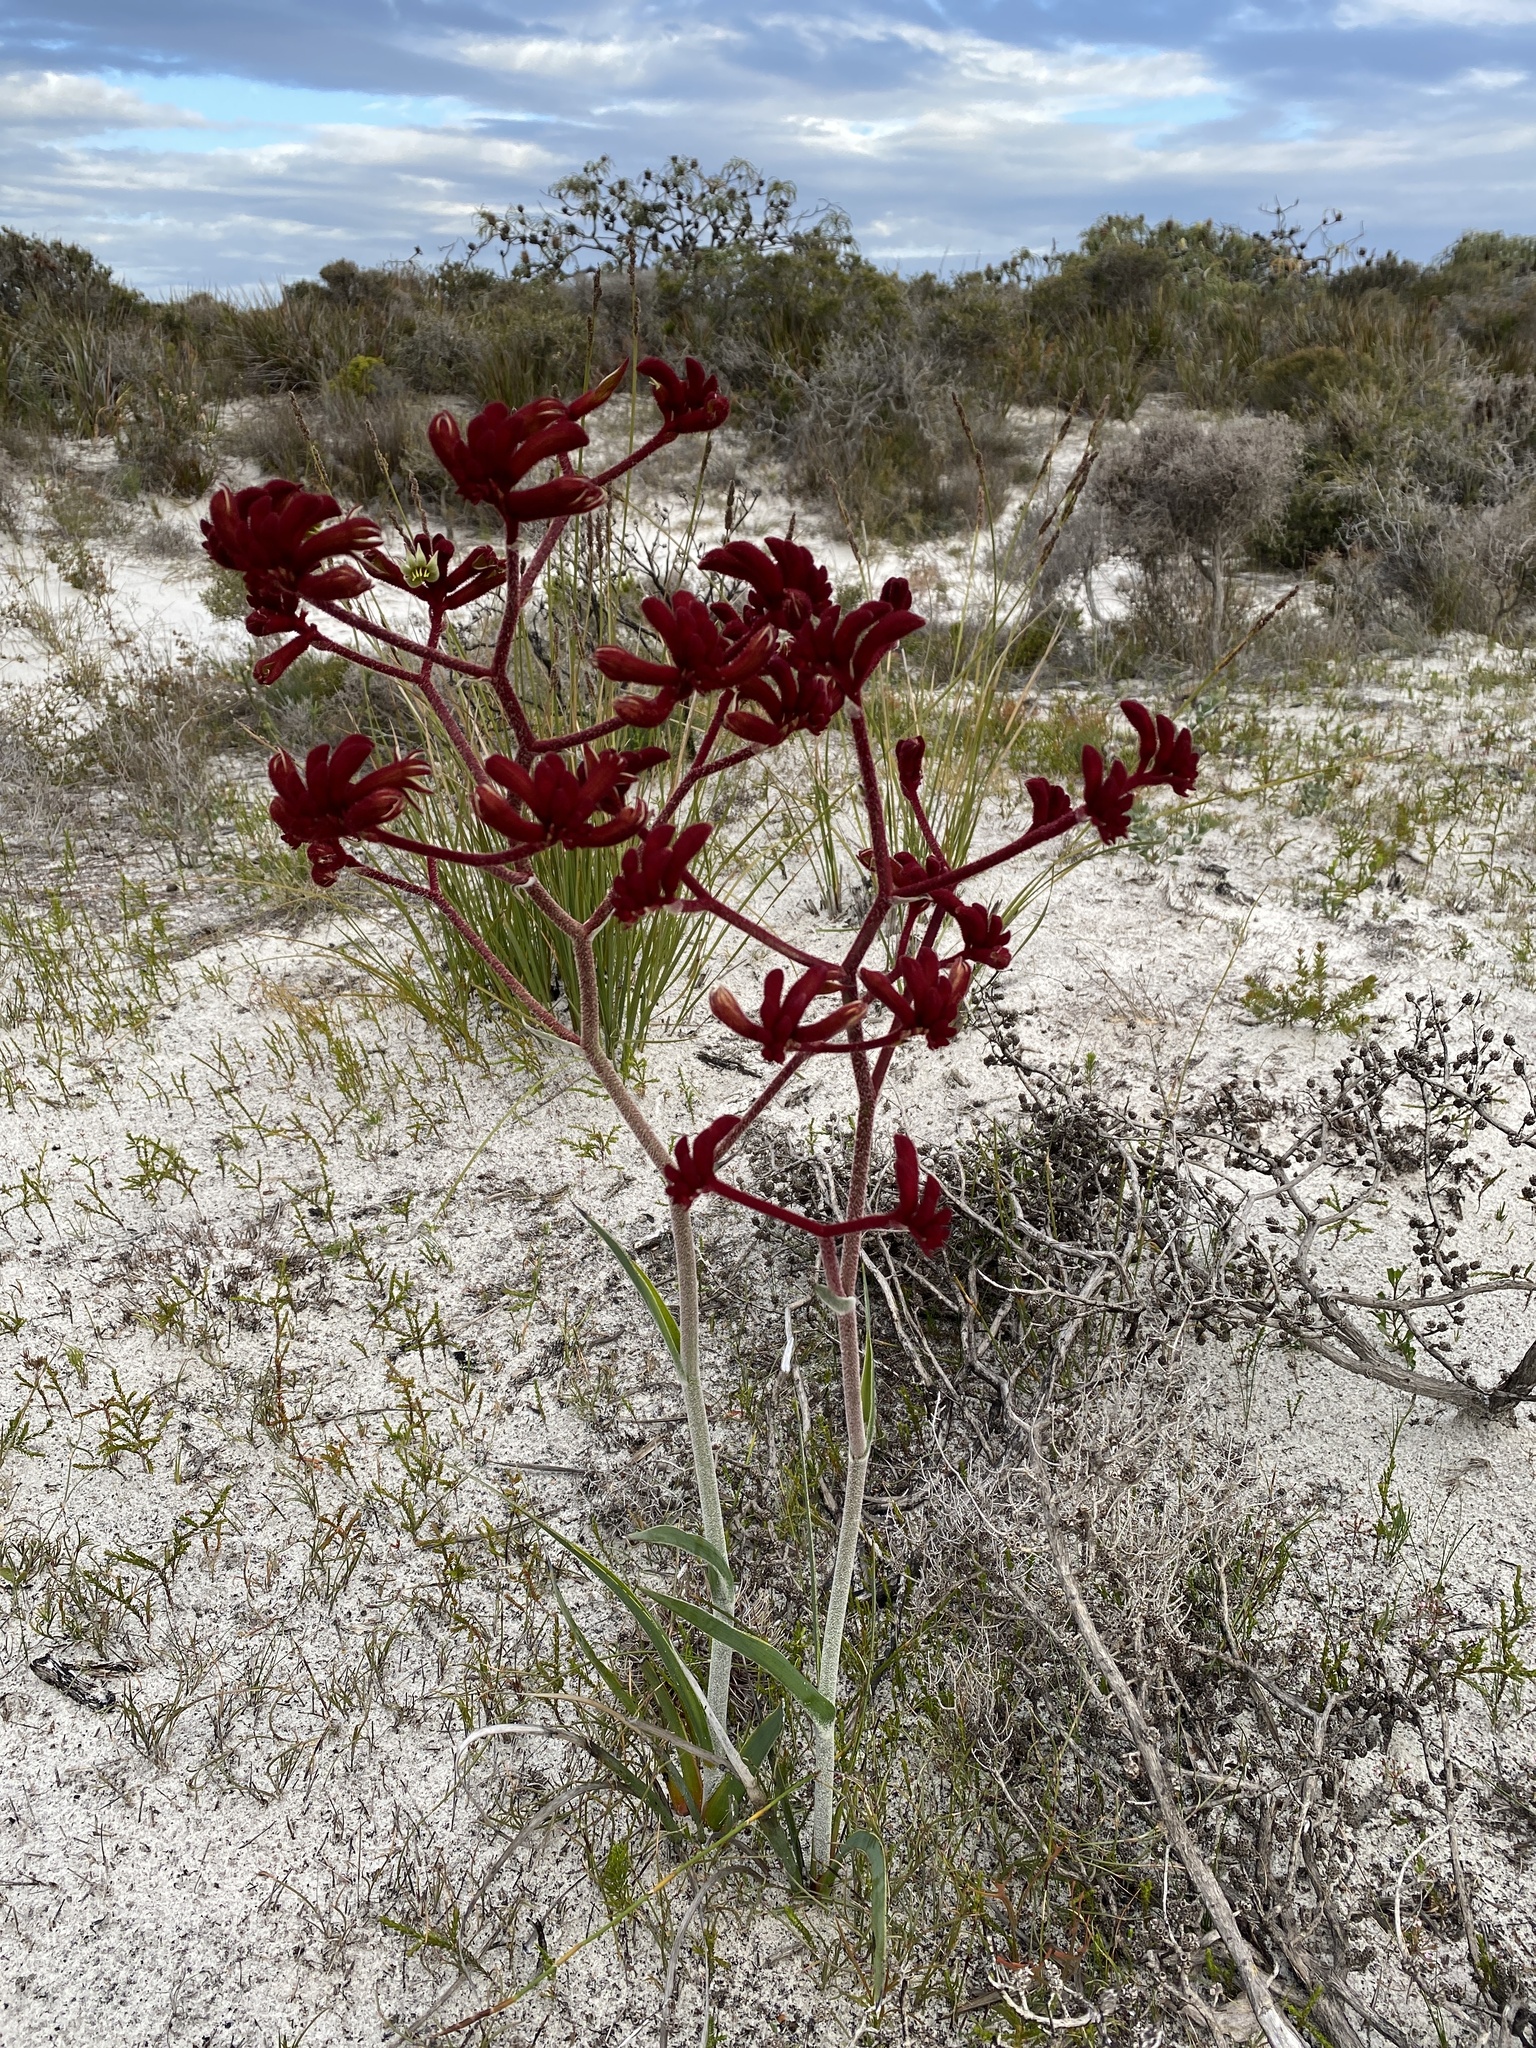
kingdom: Plantae
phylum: Tracheophyta
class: Liliopsida
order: Commelinales
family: Haemodoraceae
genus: Anigozanthos
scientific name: Anigozanthos rufus
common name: Red kangaroo-paw
